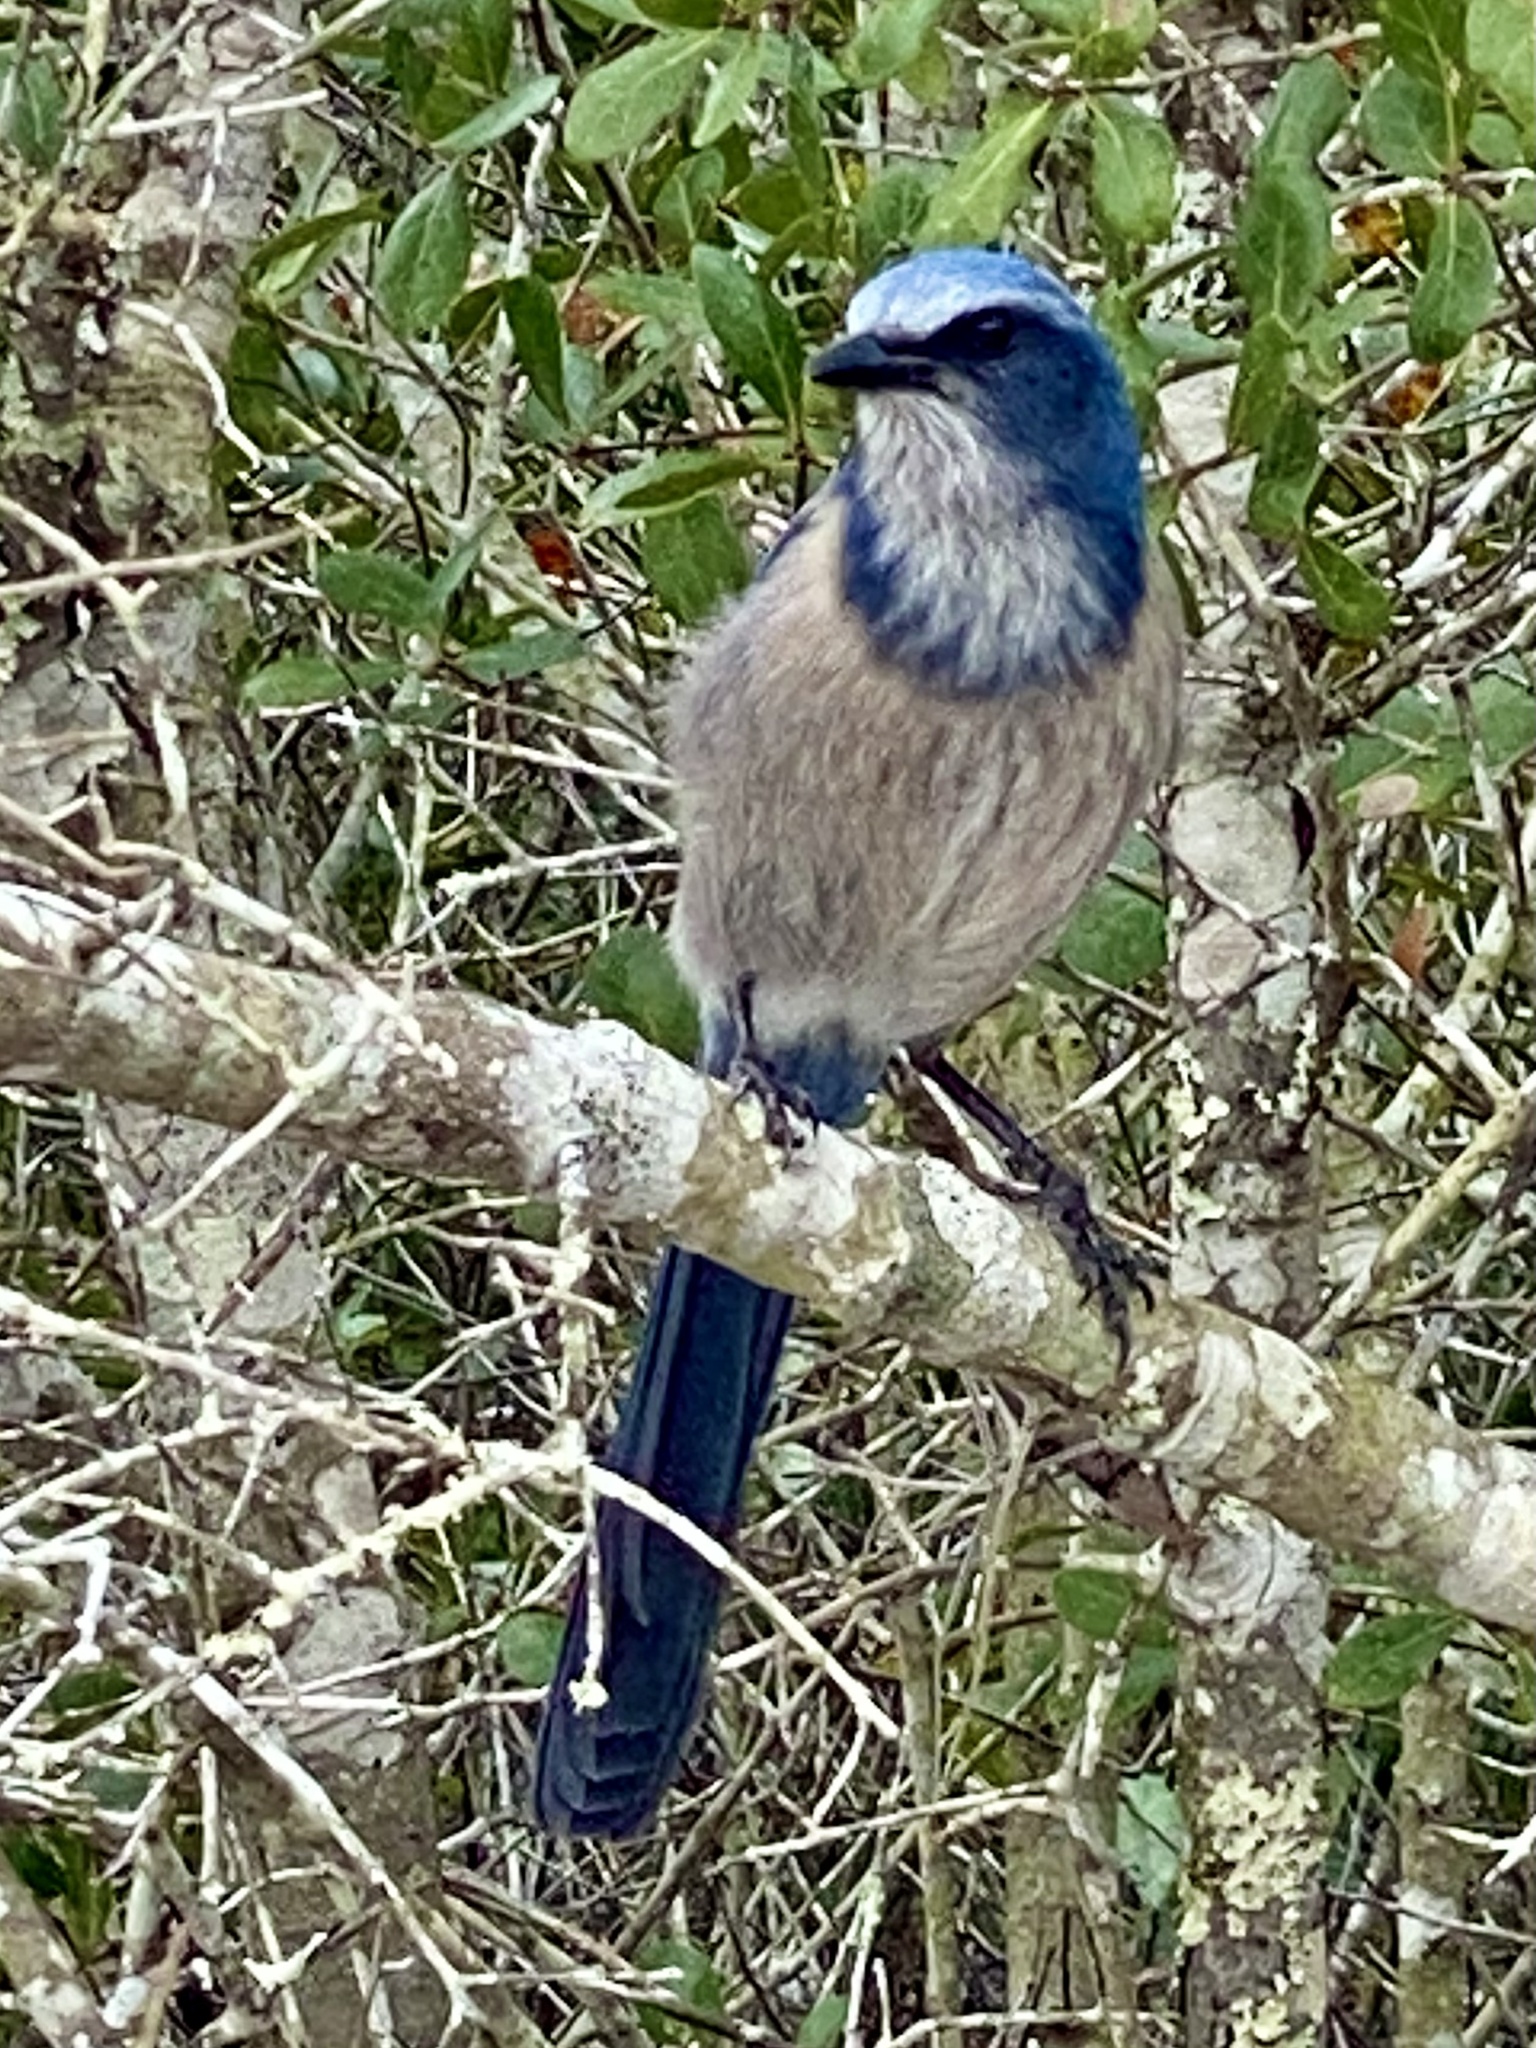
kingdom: Animalia
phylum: Chordata
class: Aves
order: Passeriformes
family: Corvidae
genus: Aphelocoma
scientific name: Aphelocoma coerulescens
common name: Florida scrub jay
